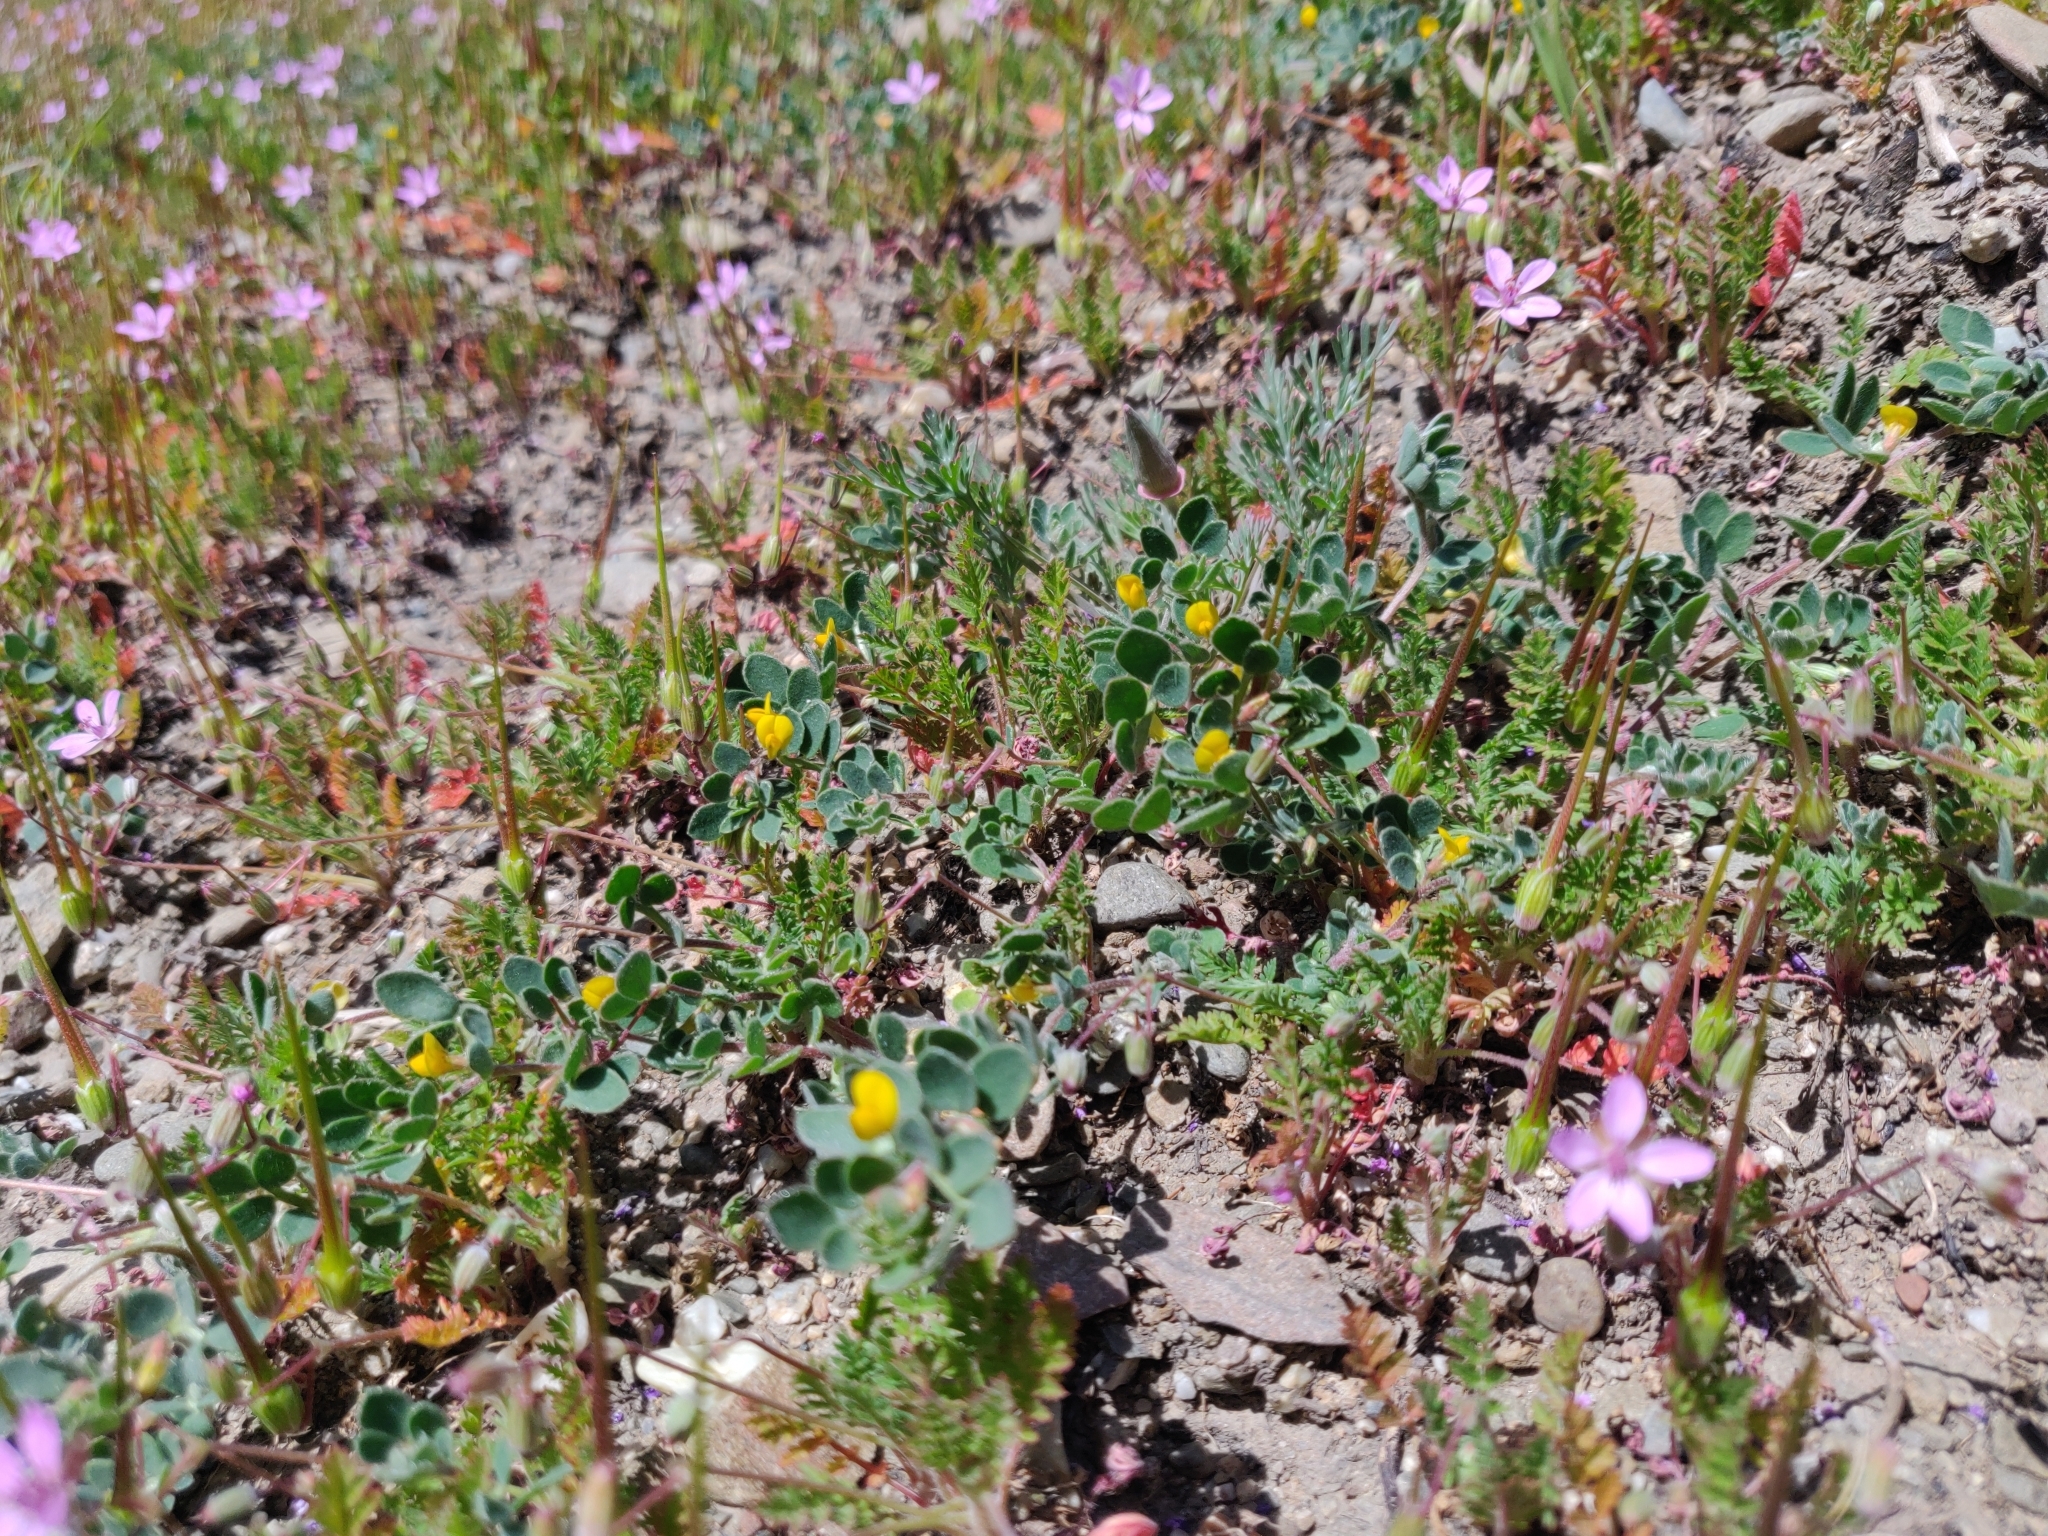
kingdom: Plantae
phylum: Tracheophyta
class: Magnoliopsida
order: Ranunculales
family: Papaveraceae
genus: Eschscholzia
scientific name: Eschscholzia californica
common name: California poppy
